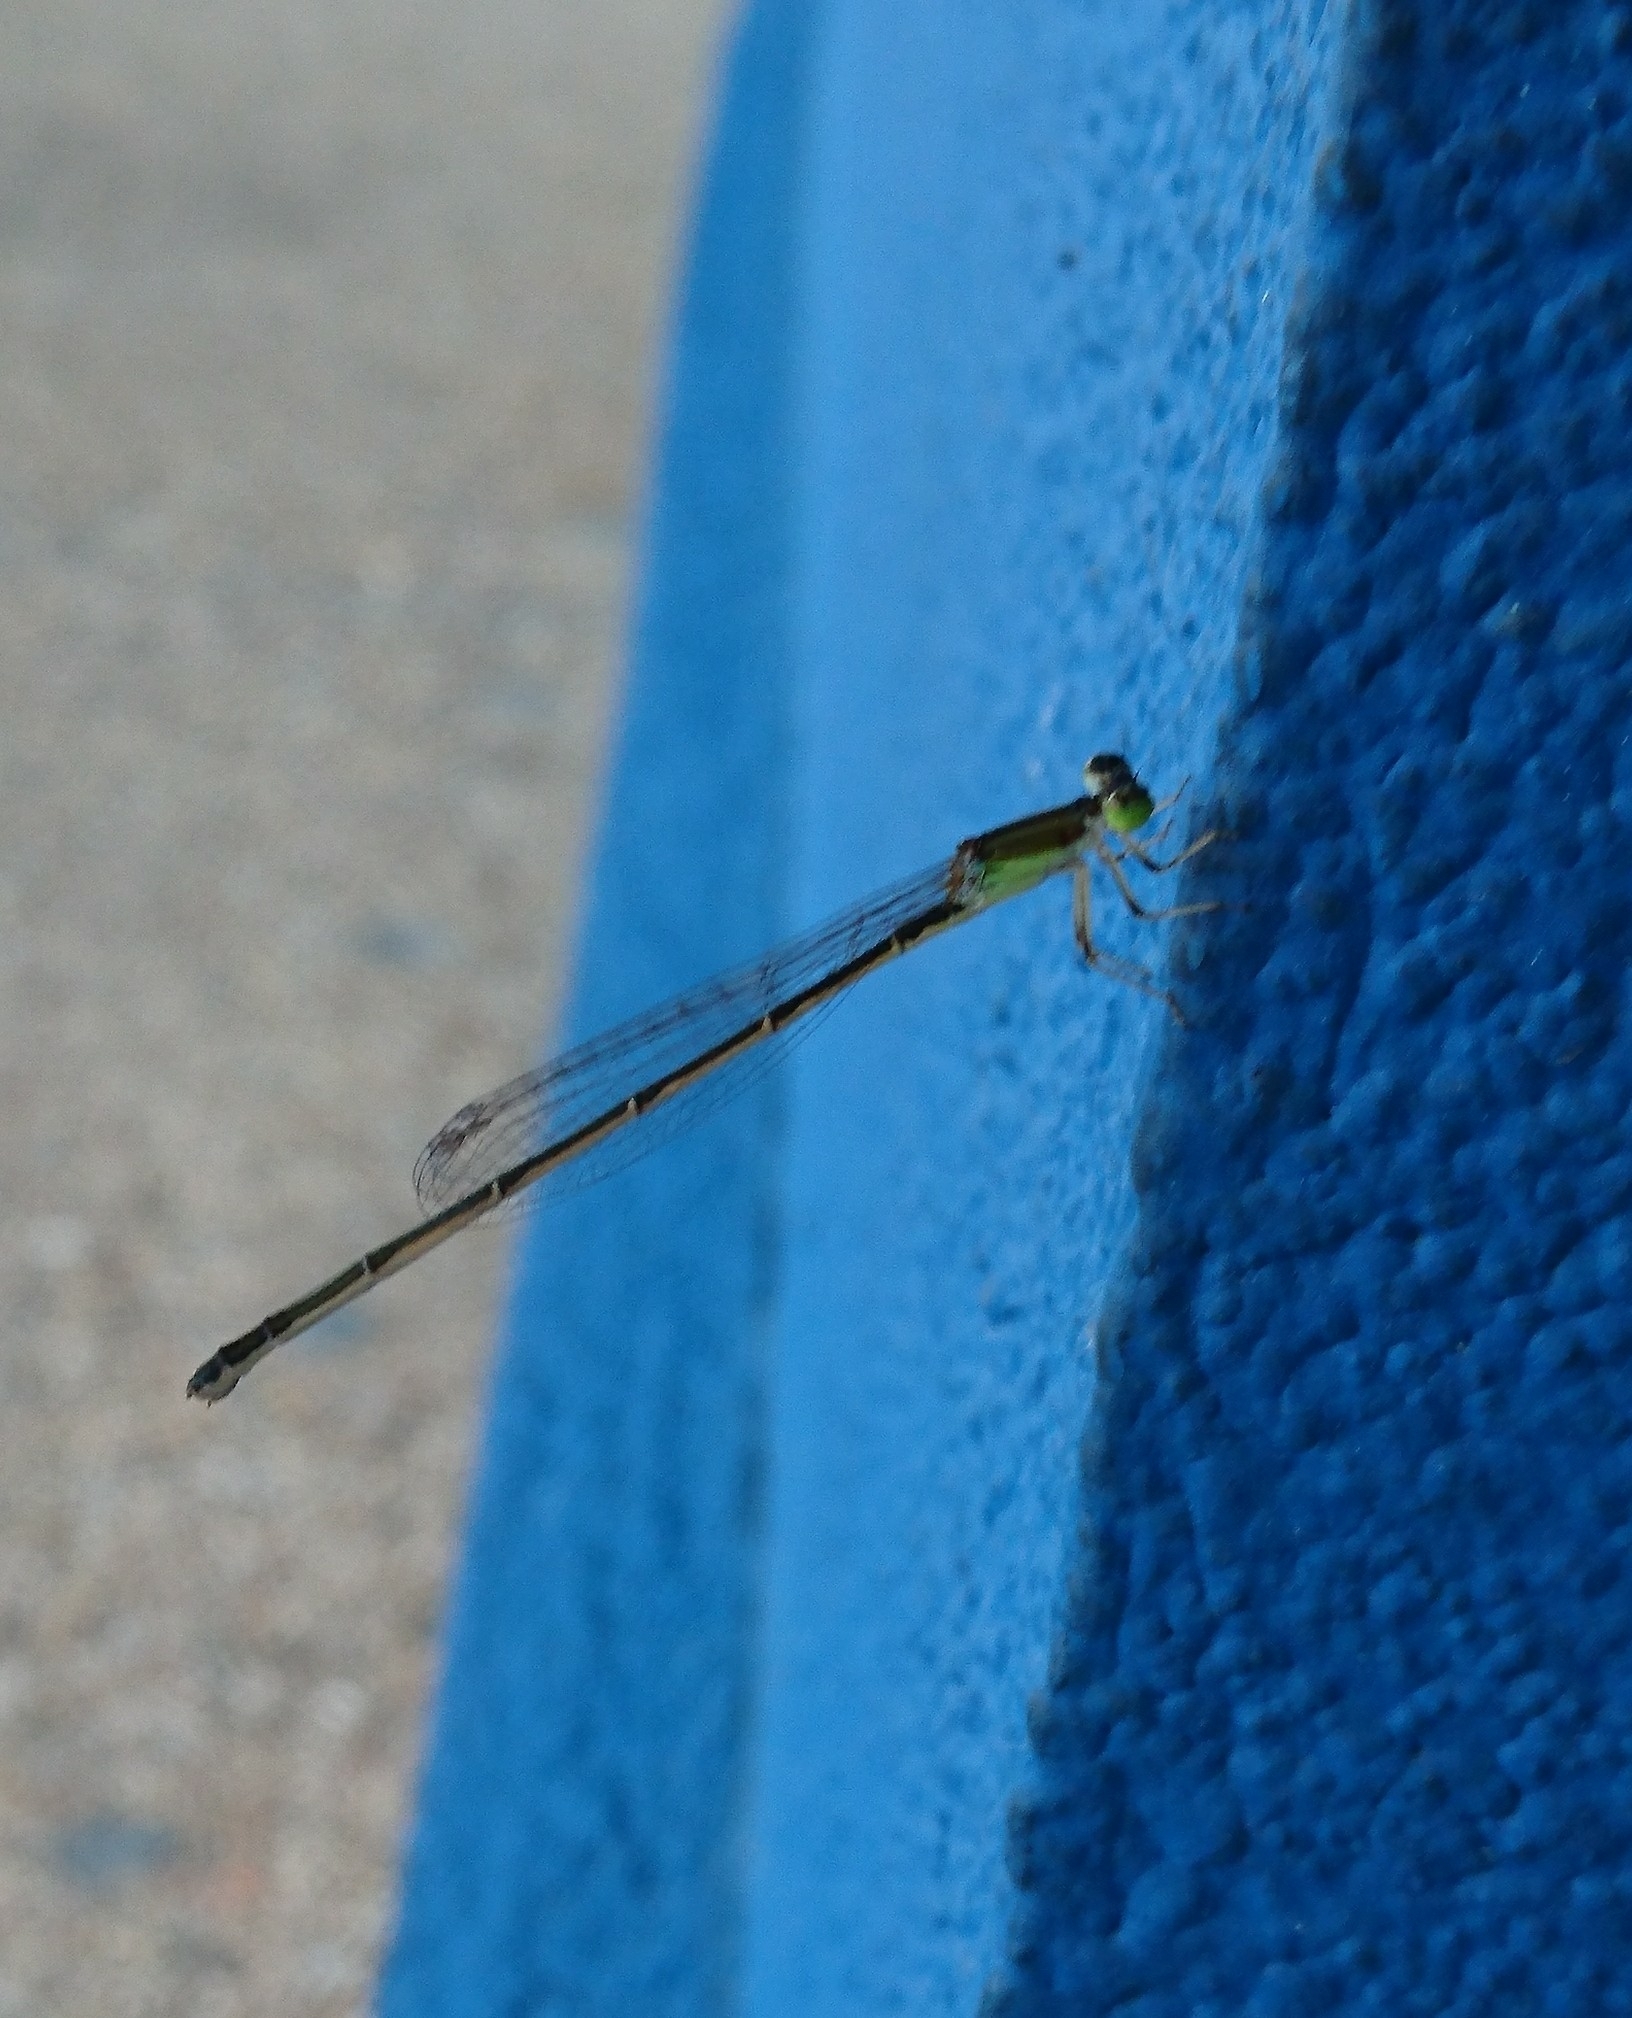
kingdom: Animalia
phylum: Arthropoda
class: Insecta
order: Odonata
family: Coenagrionidae
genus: Ischnura
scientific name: Ischnura prognata
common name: Furtive forktail
